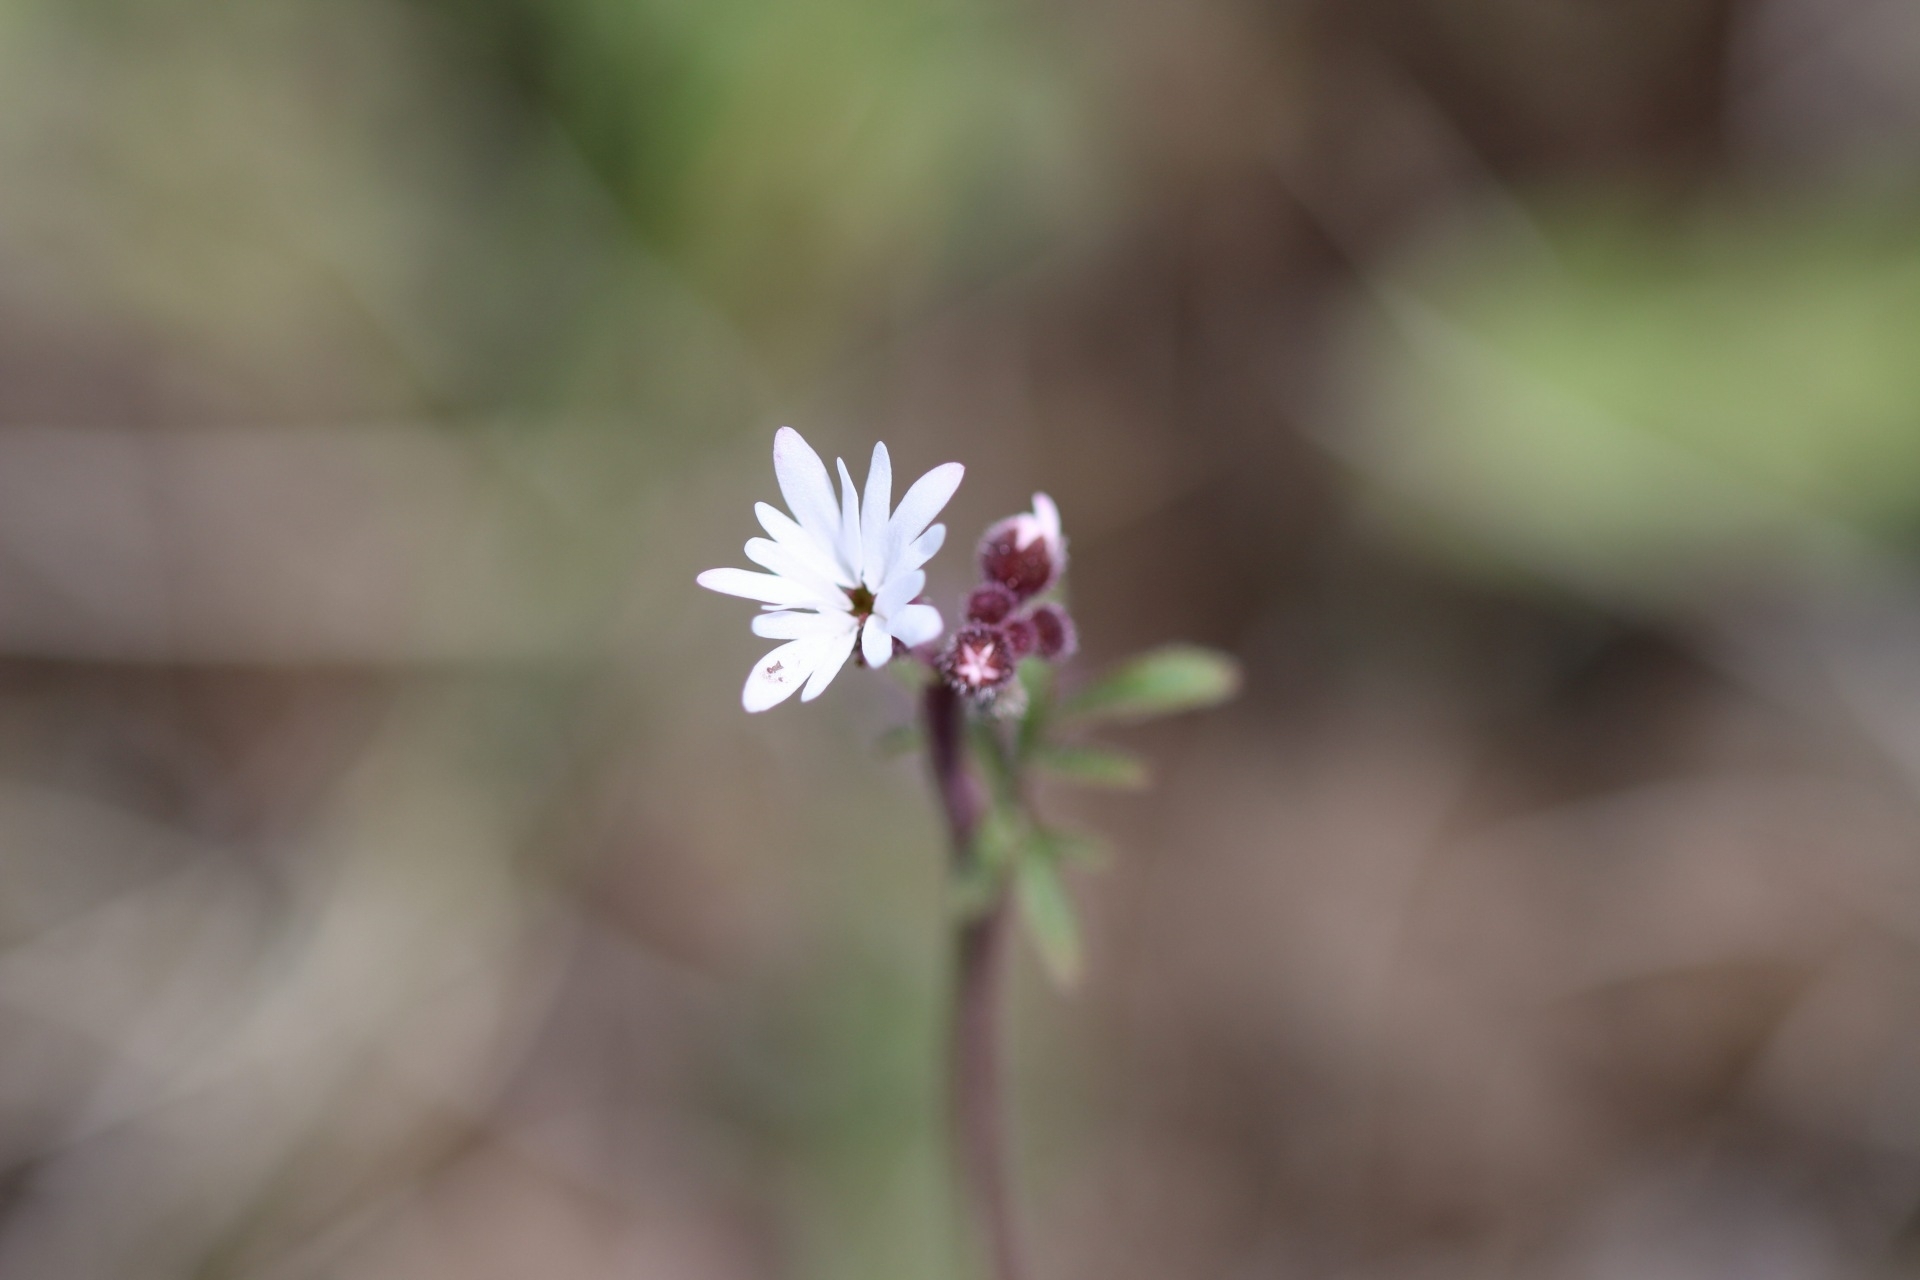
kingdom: Plantae
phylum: Tracheophyta
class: Magnoliopsida
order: Saxifragales
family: Saxifragaceae
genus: Lithophragma
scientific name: Lithophragma parviflorum
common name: Small-flowered fringe-cup
